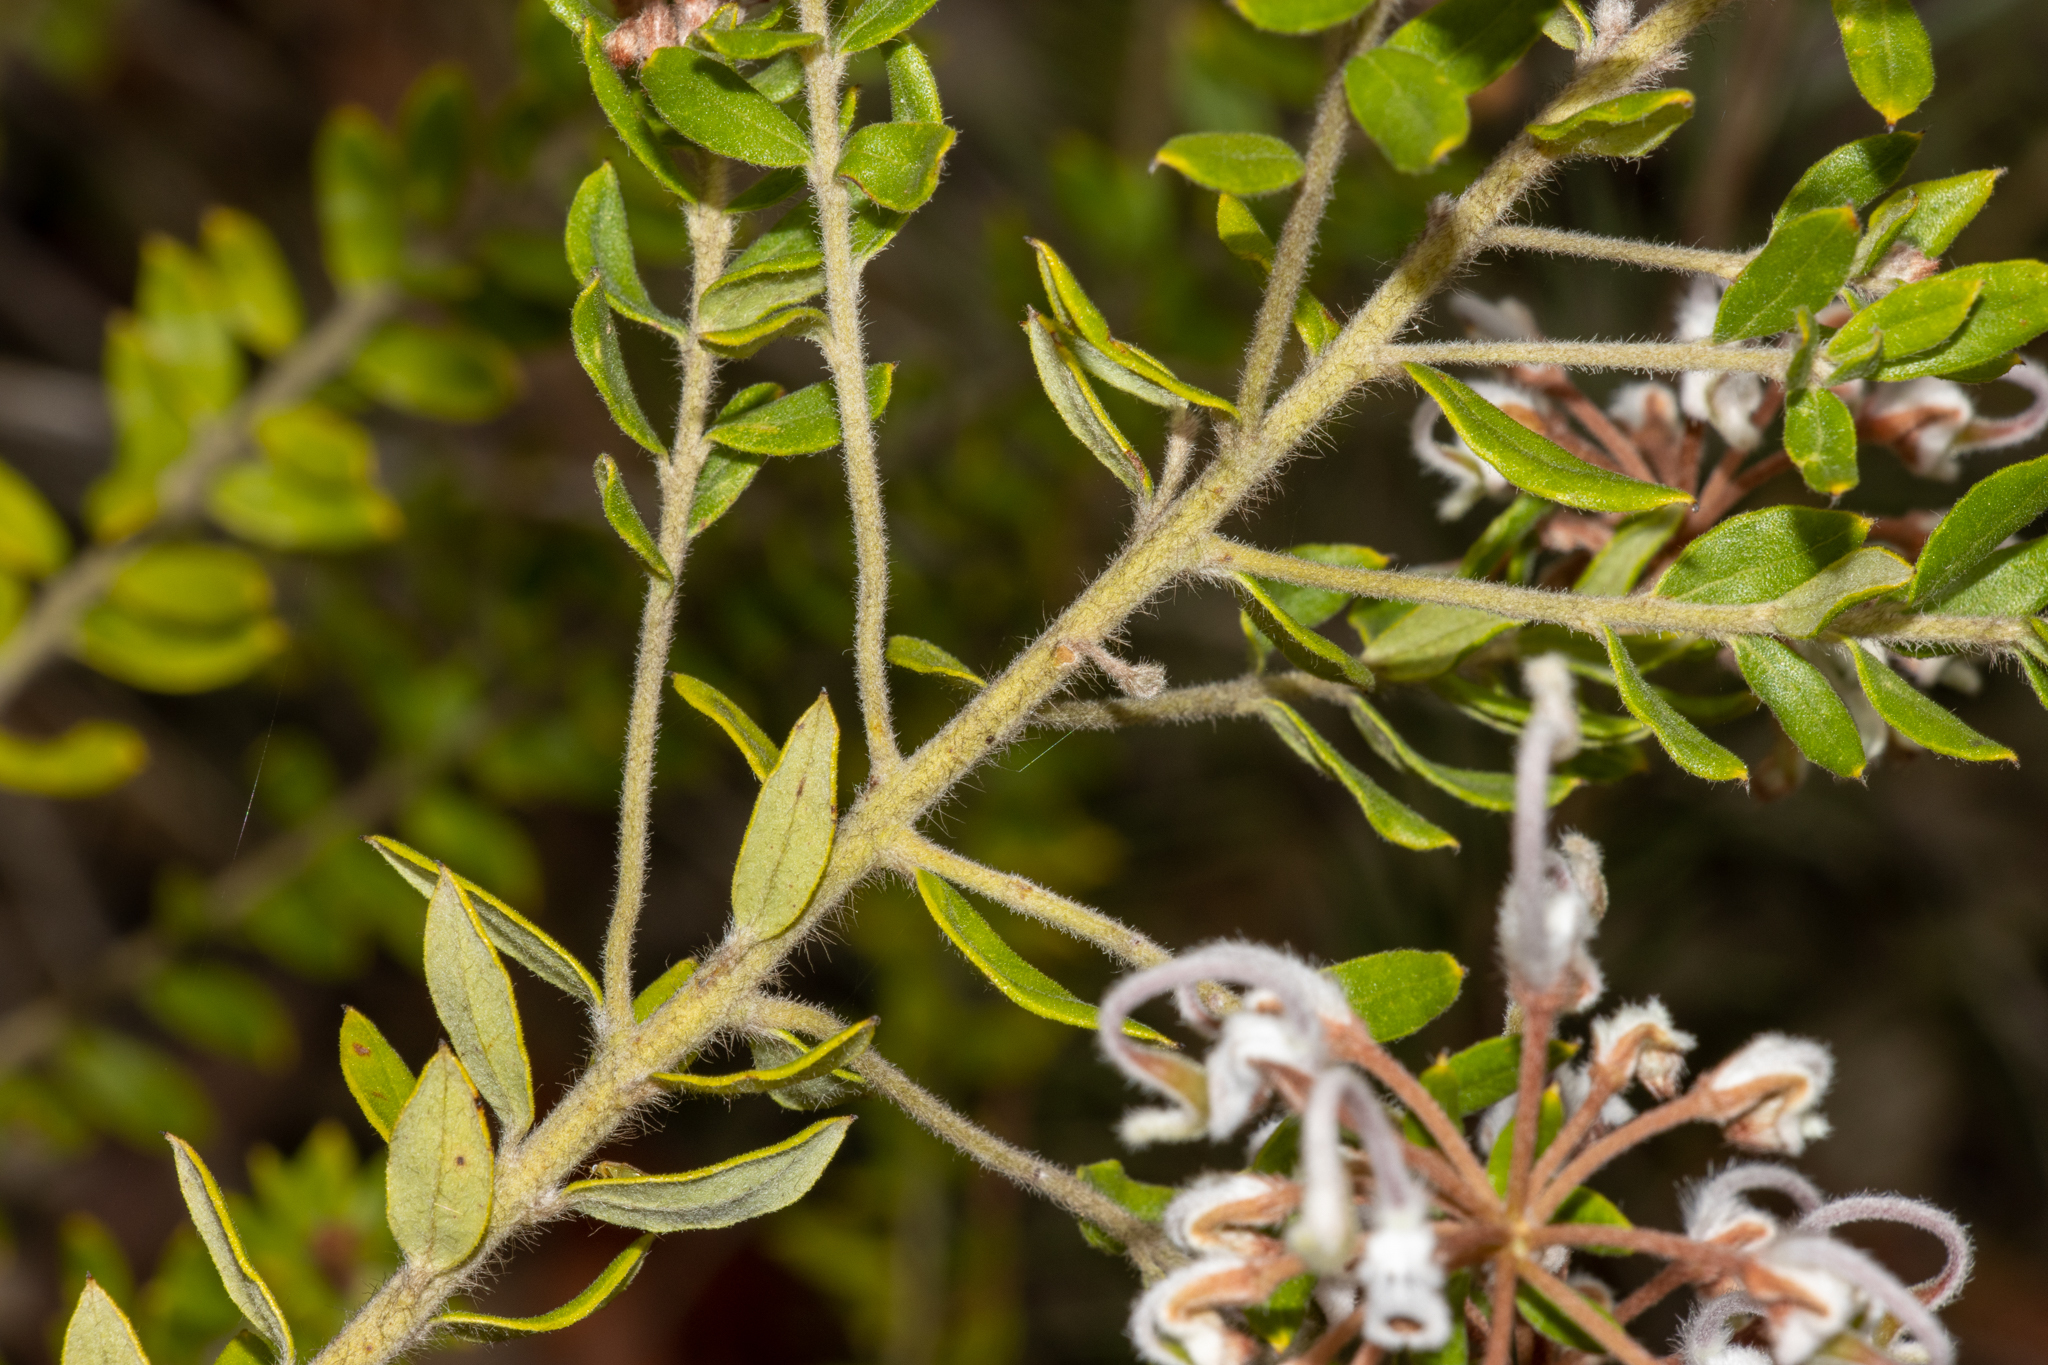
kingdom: Plantae
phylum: Tracheophyta
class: Magnoliopsida
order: Proteales
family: Proteaceae
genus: Grevillea
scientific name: Grevillea buxifolia
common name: Grey spiderflower
